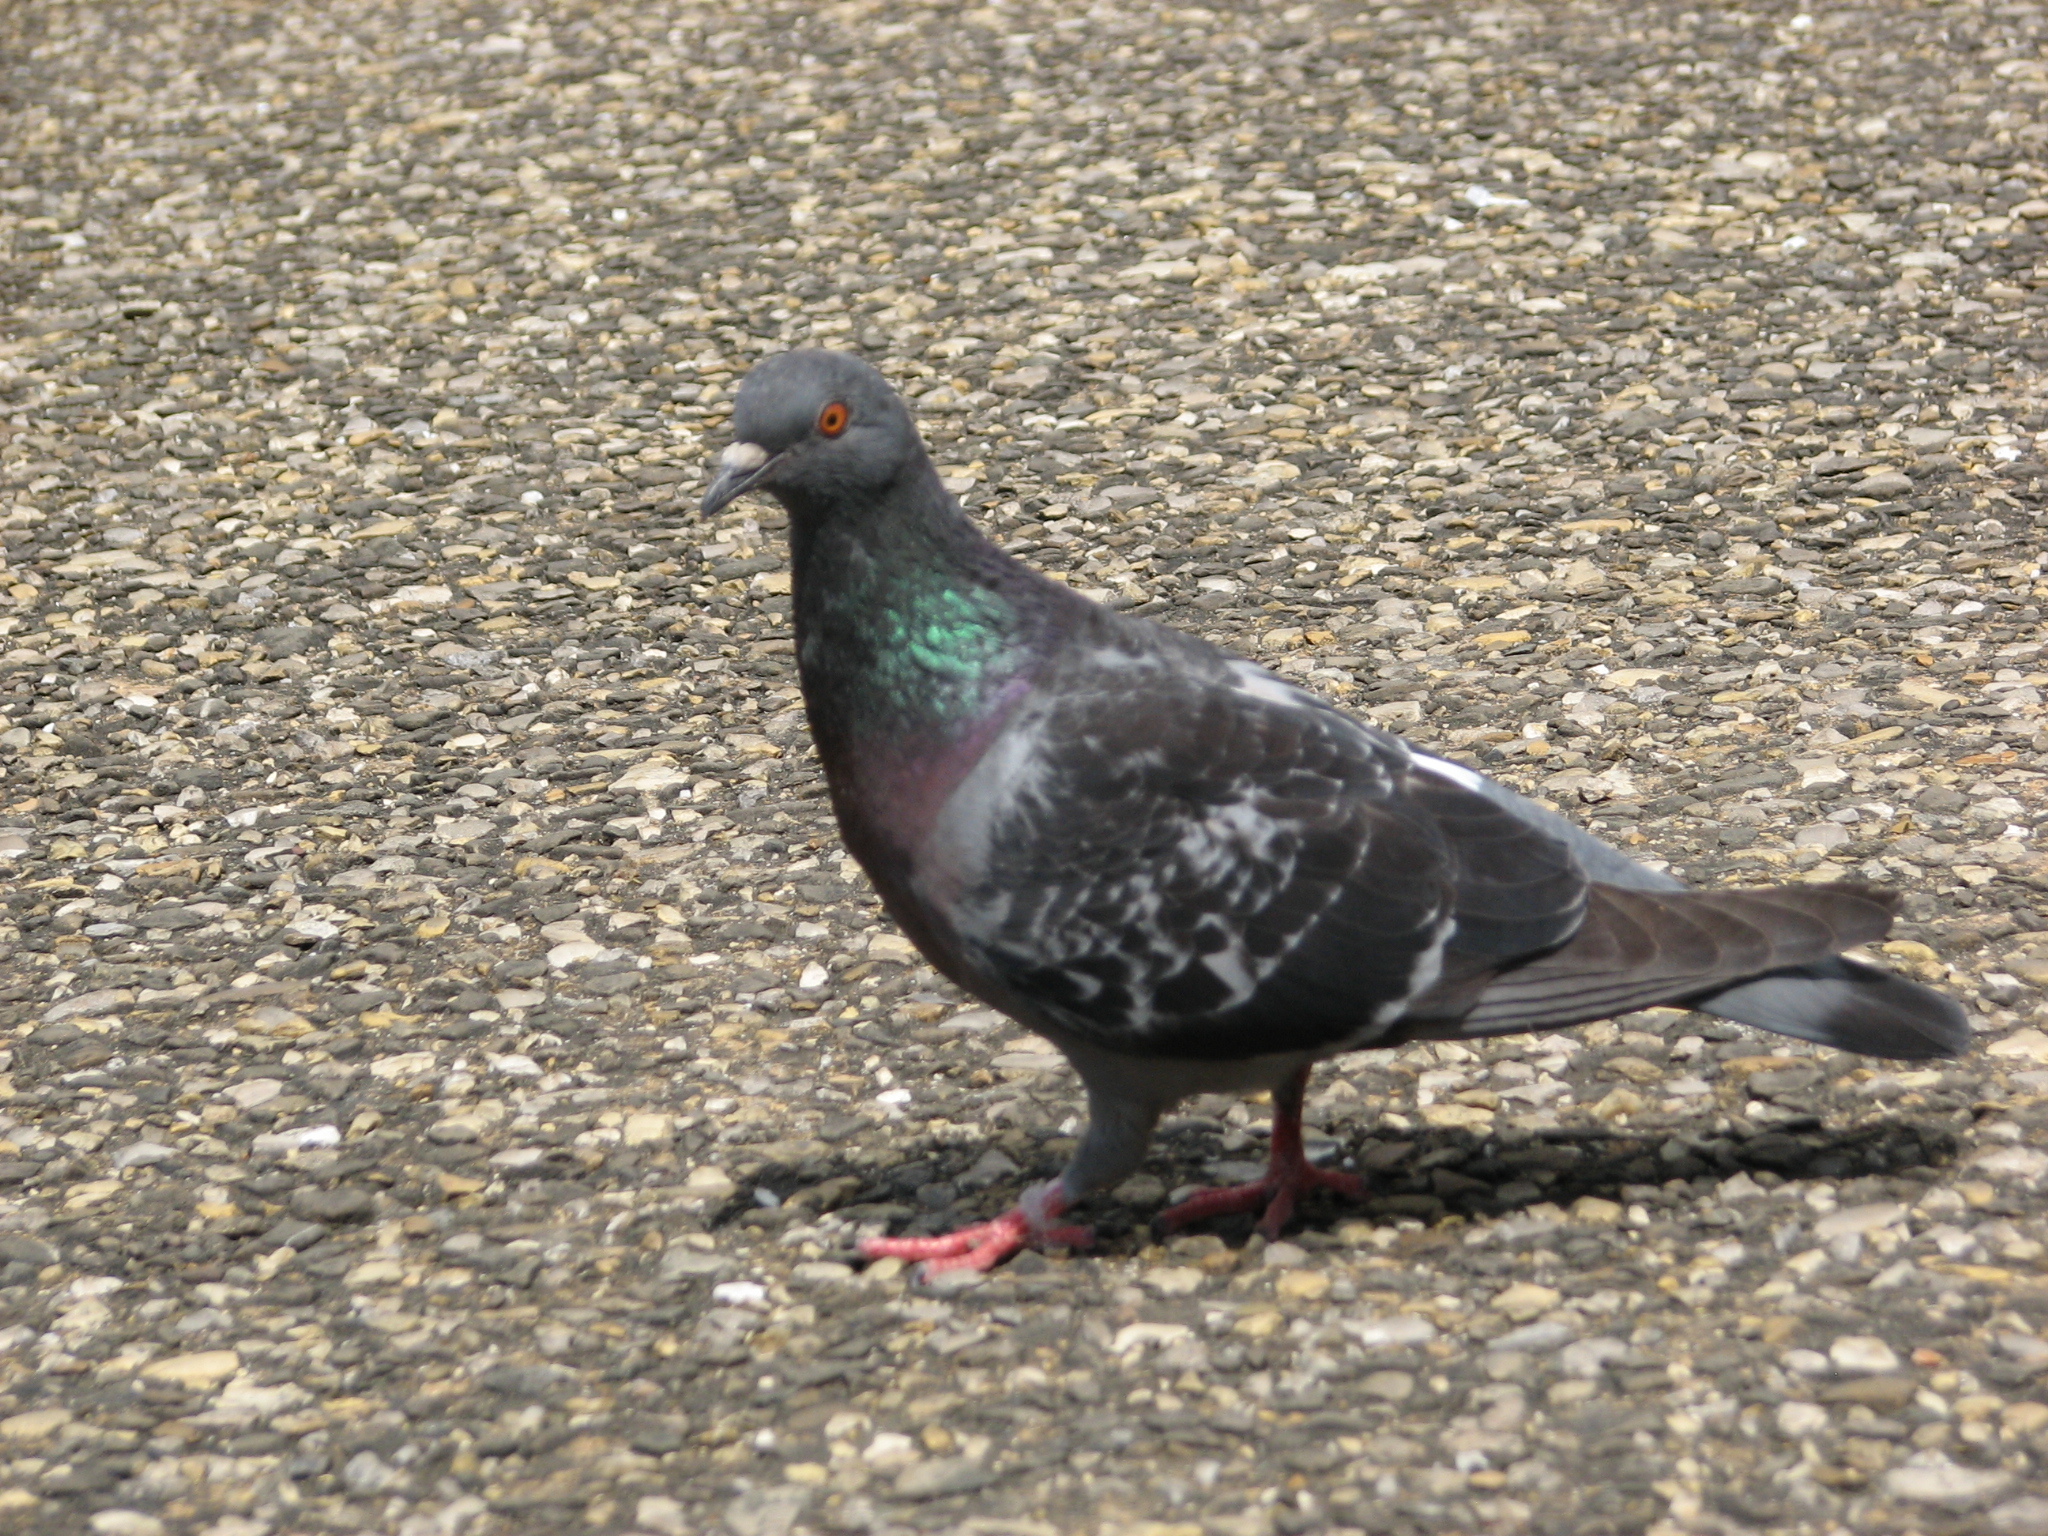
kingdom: Animalia
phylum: Chordata
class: Aves
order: Columbiformes
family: Columbidae
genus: Columba
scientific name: Columba livia
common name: Rock pigeon
